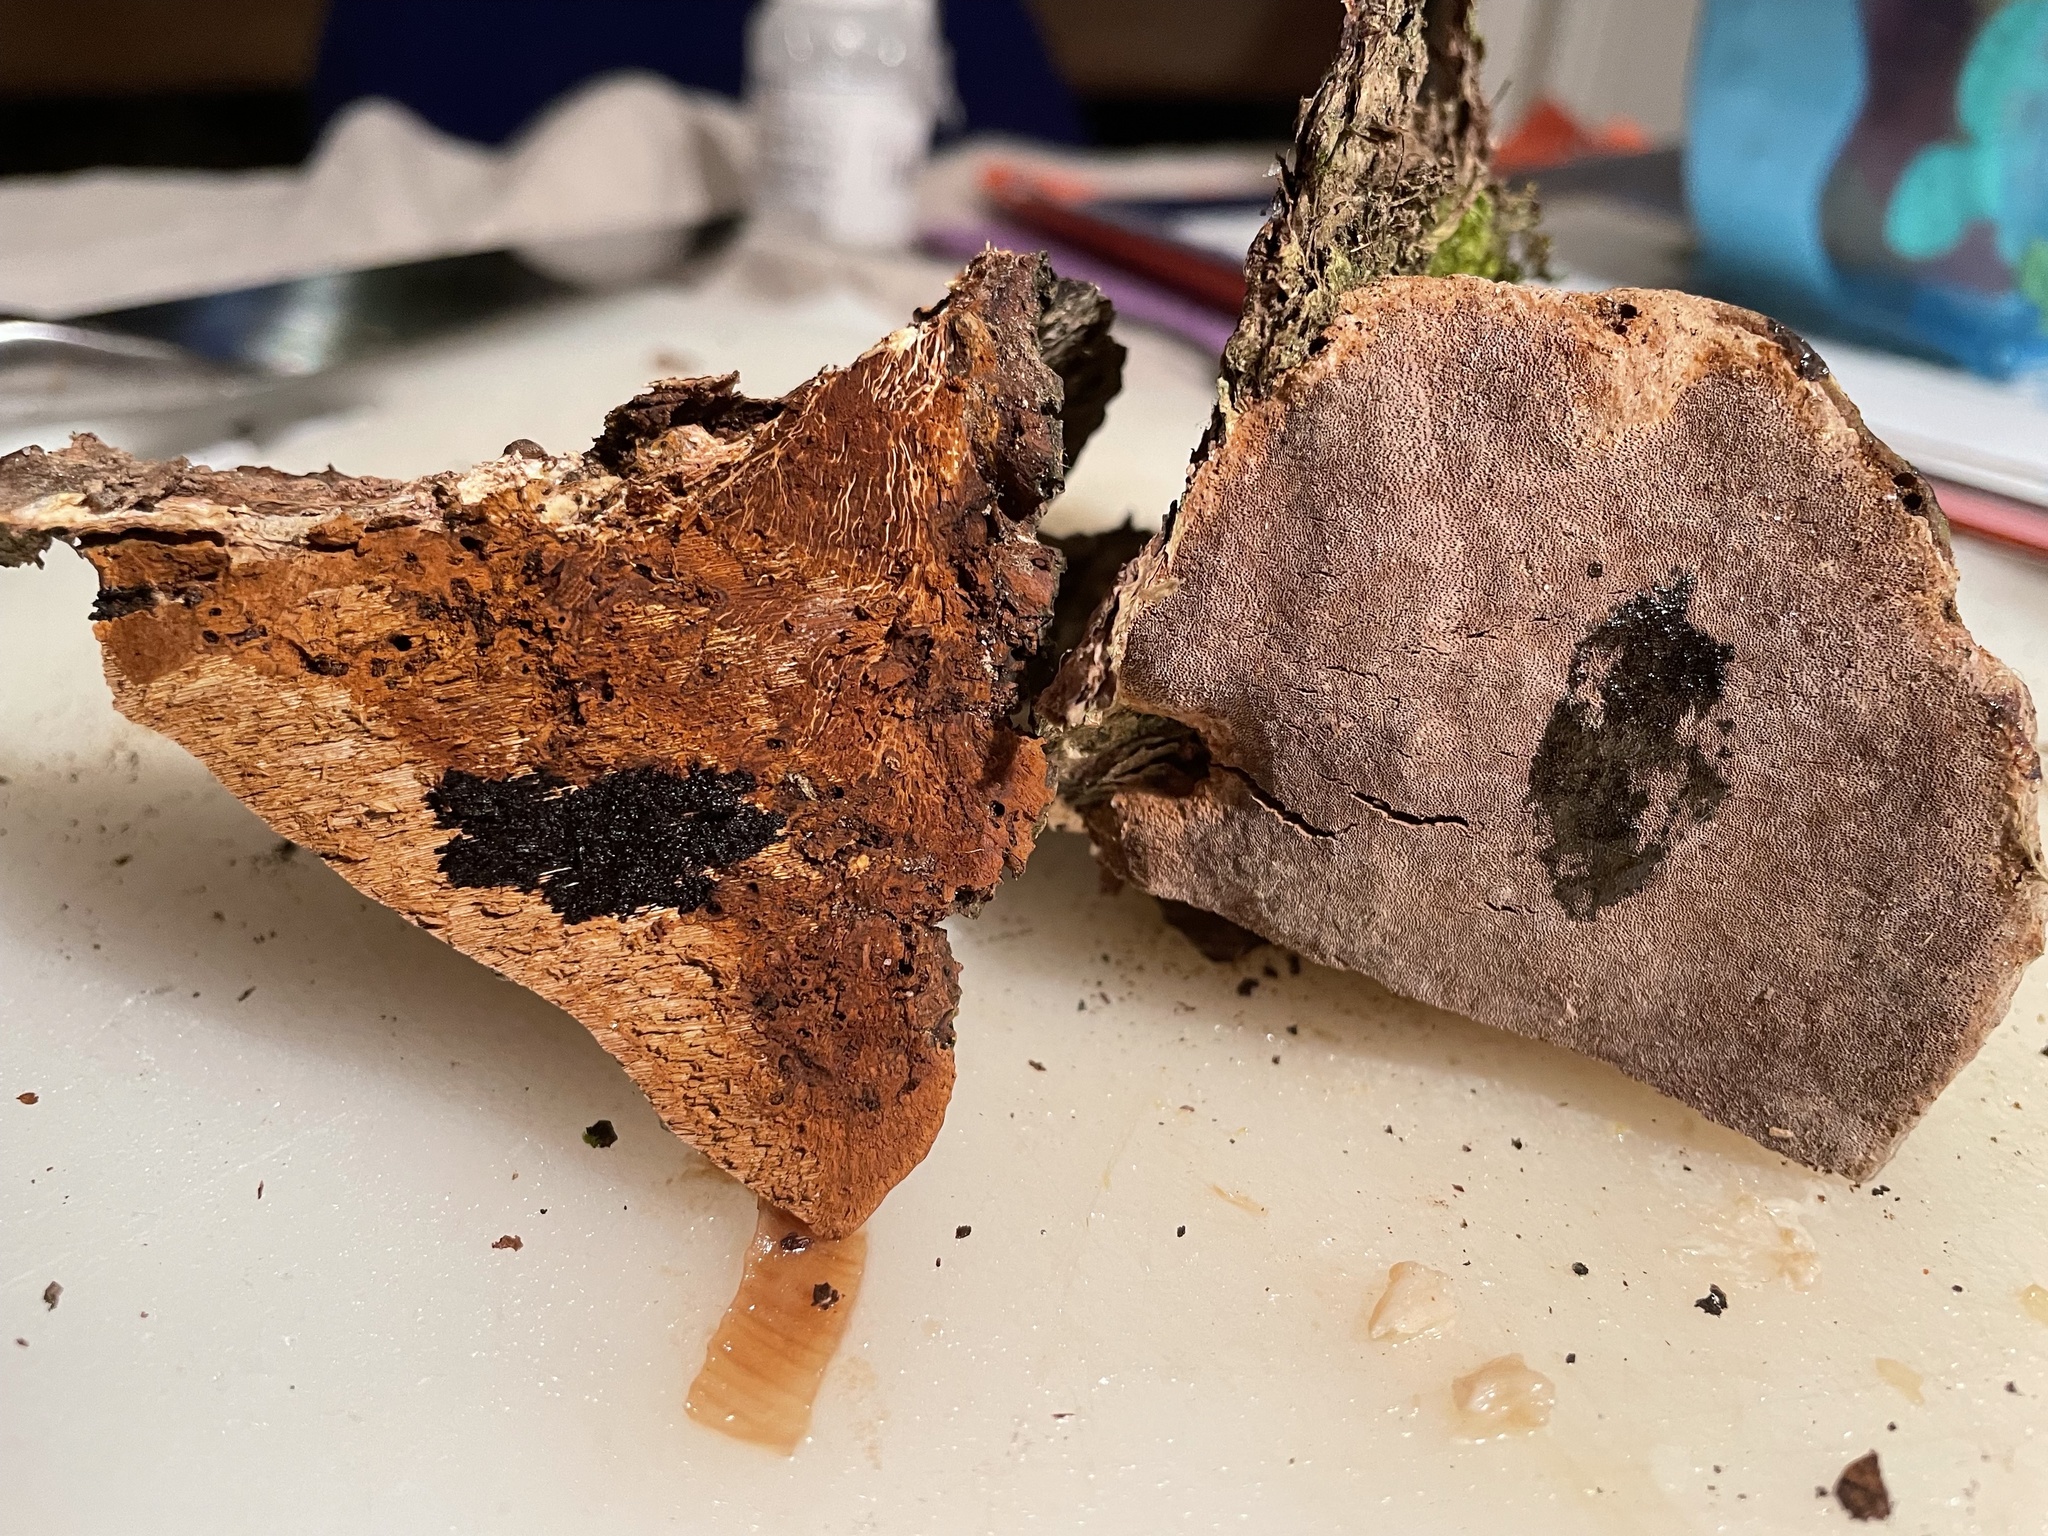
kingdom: Fungi
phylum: Basidiomycota
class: Agaricomycetes
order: Hymenochaetales
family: Hymenochaetaceae
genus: Phellinus
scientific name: Phellinus pomaceoides
